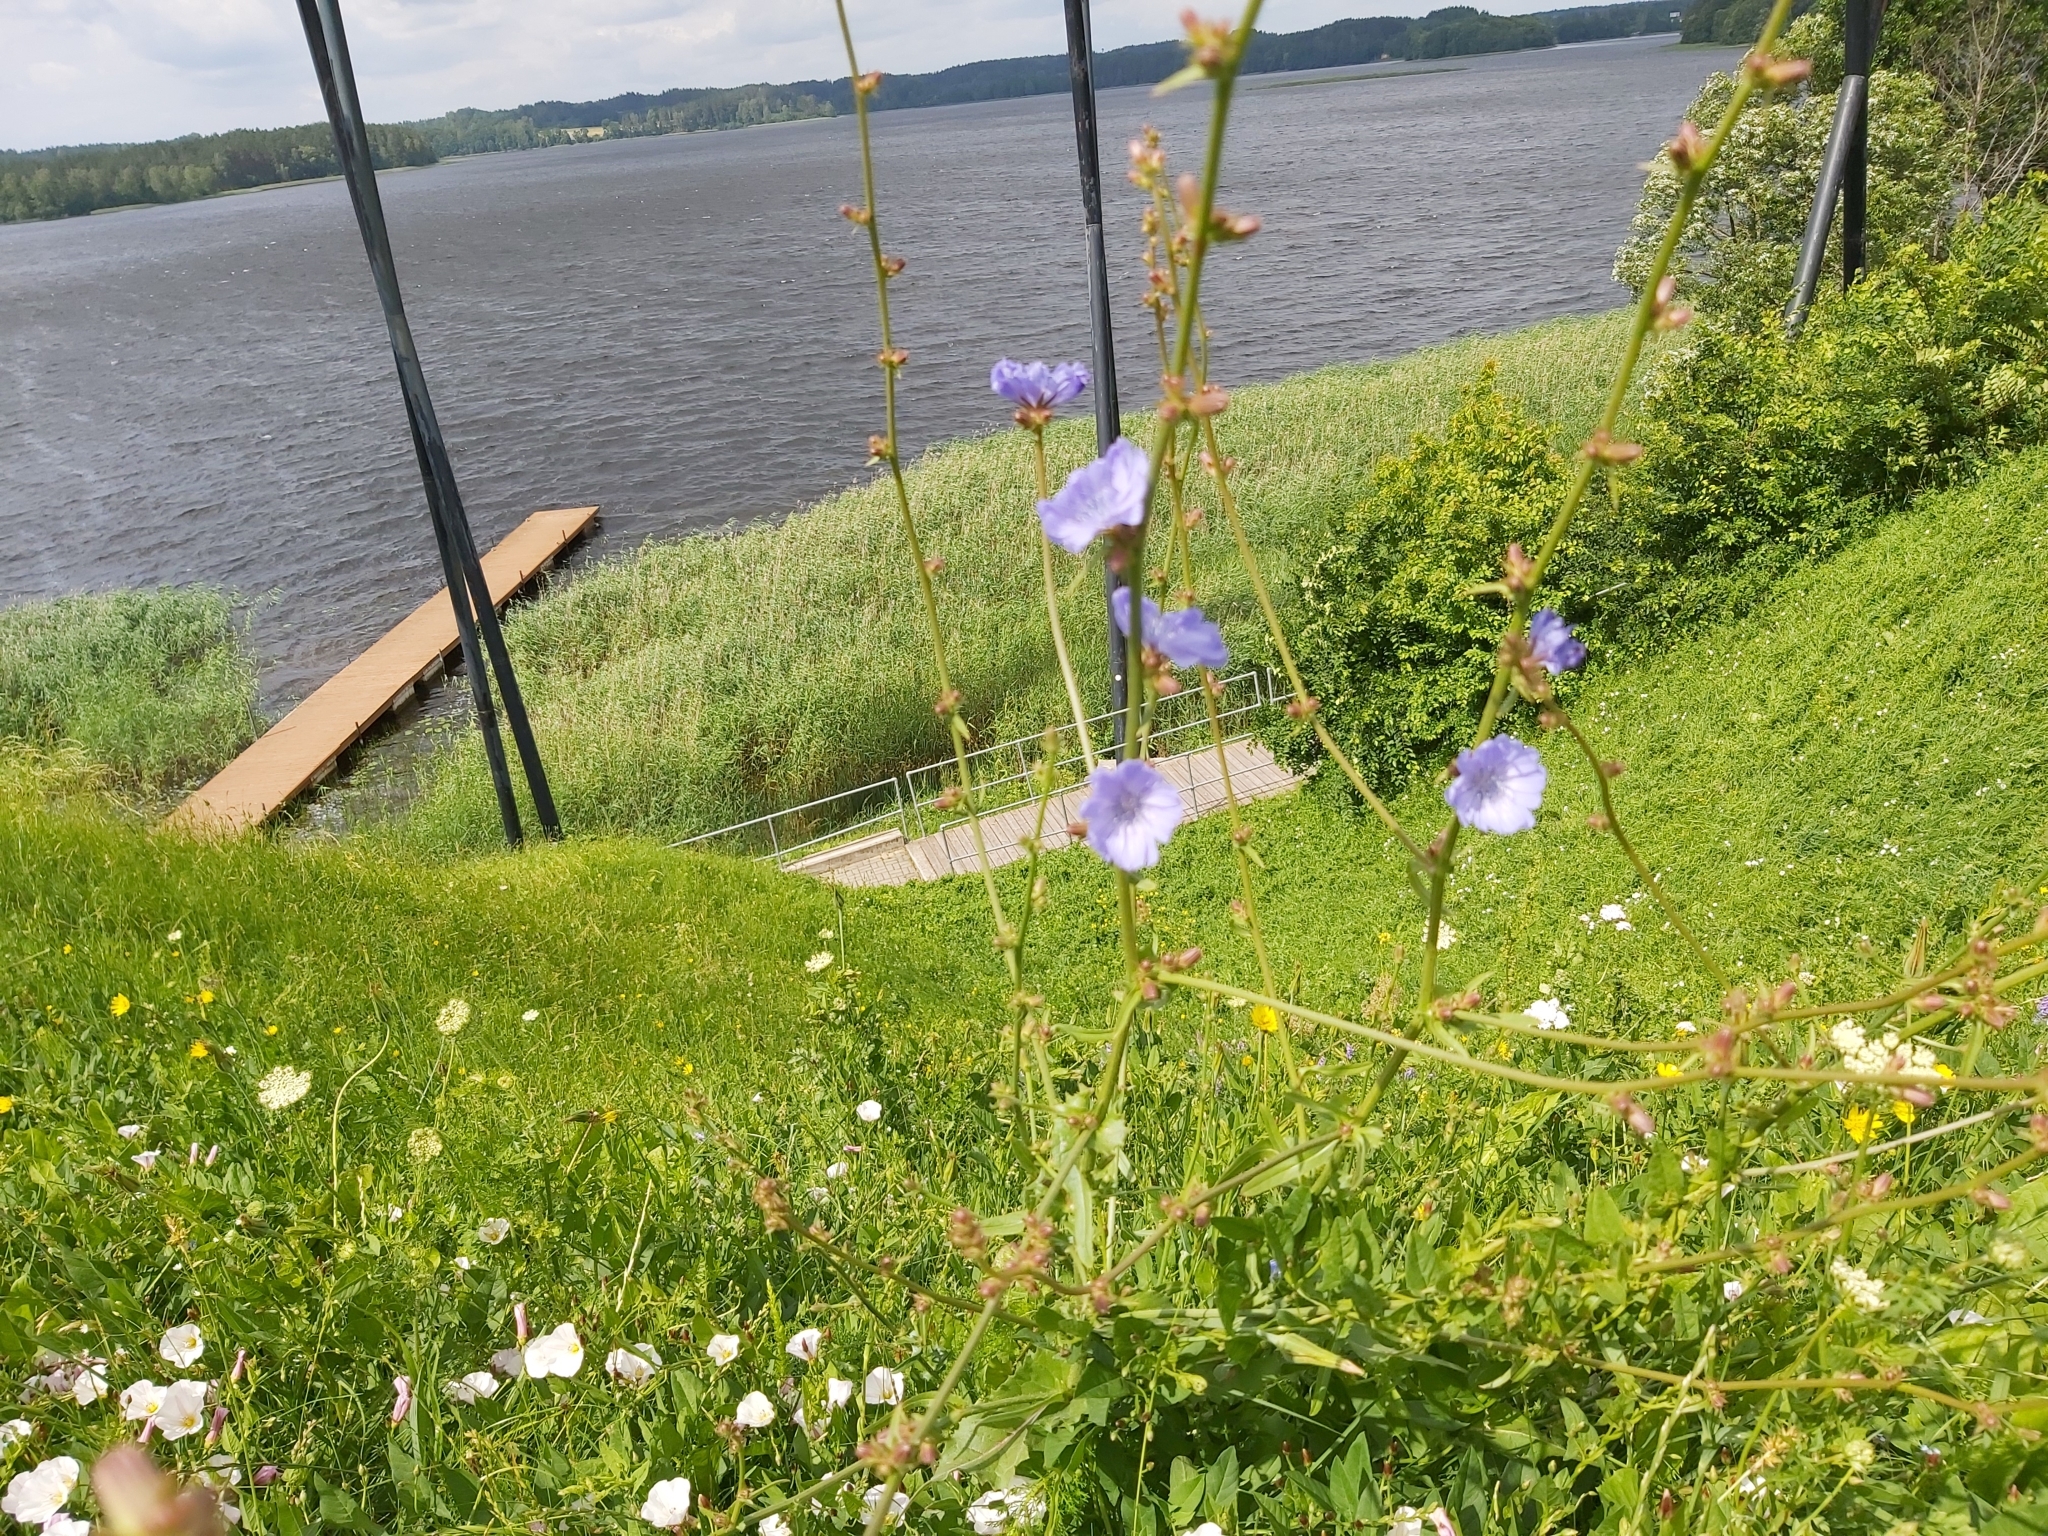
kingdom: Plantae
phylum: Tracheophyta
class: Magnoliopsida
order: Asterales
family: Asteraceae
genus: Cichorium
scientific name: Cichorium intybus
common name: Chicory
